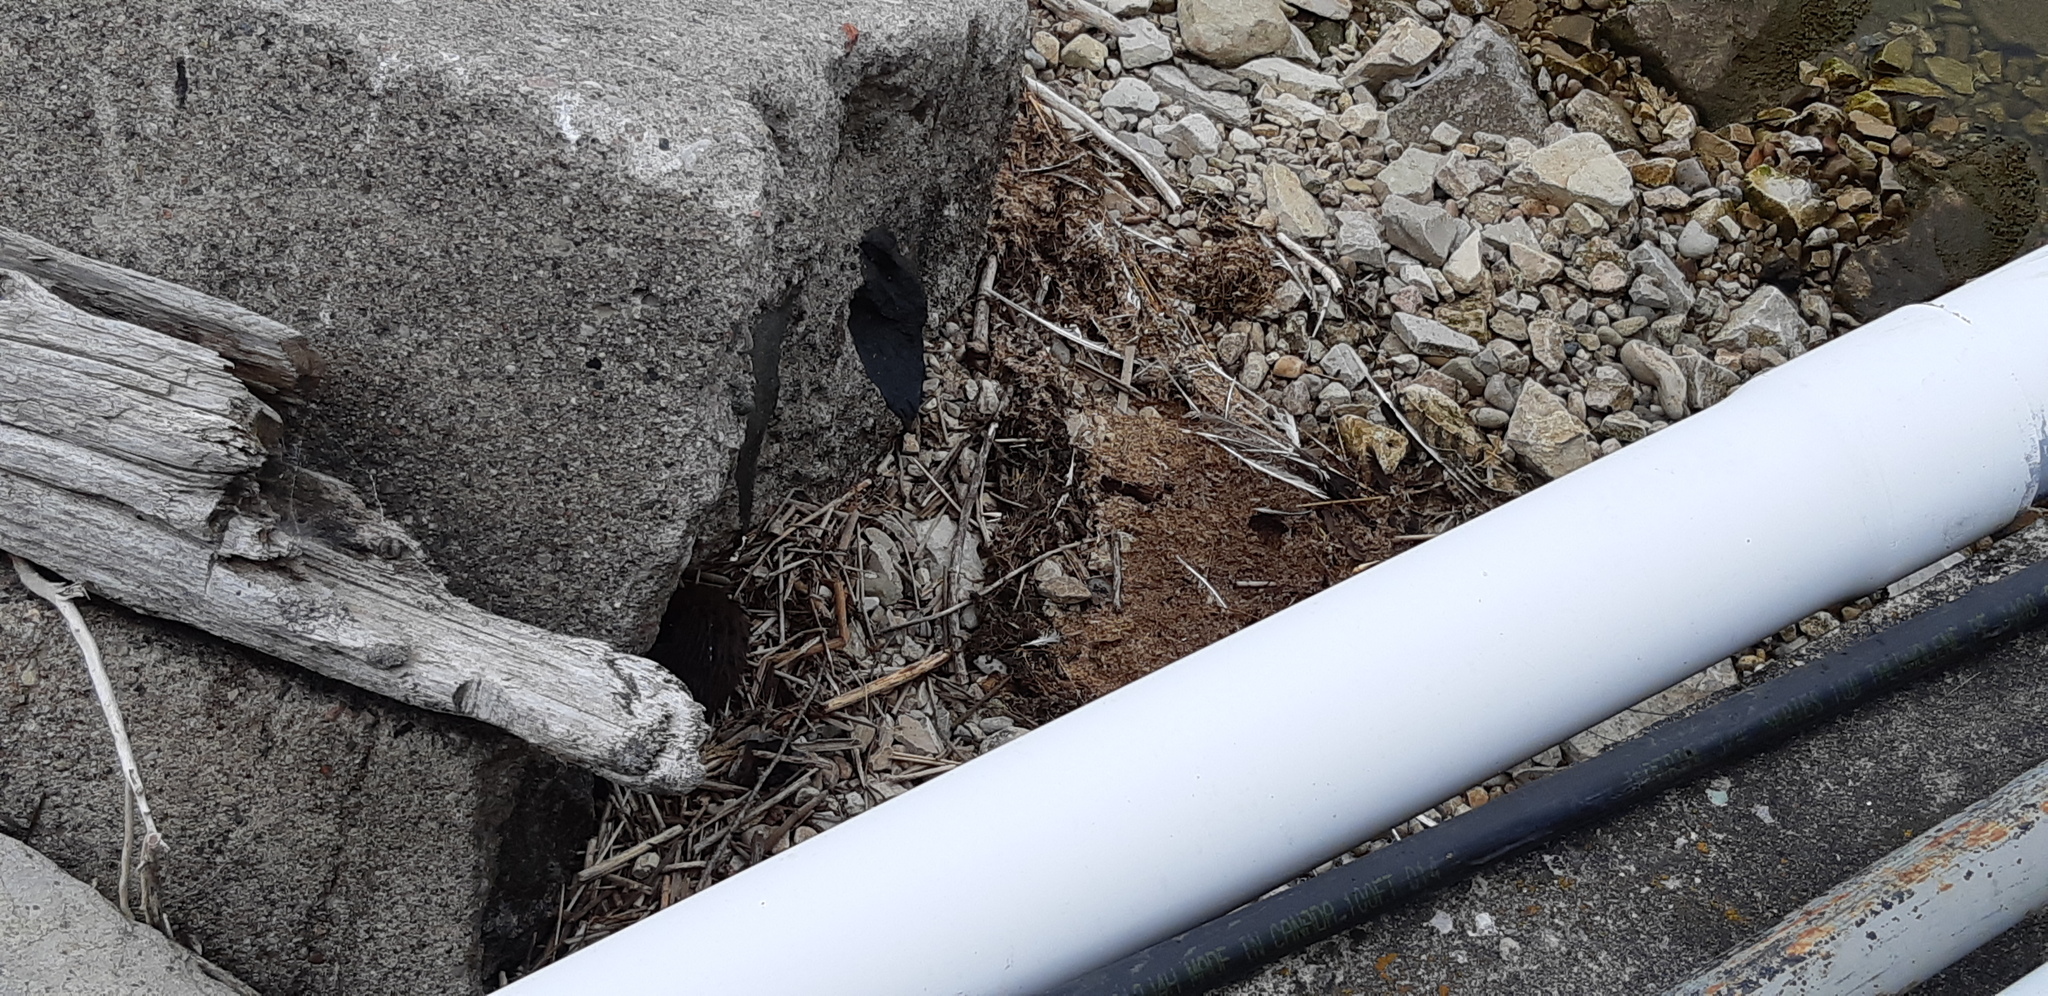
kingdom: Animalia
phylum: Chordata
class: Mammalia
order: Carnivora
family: Mustelidae
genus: Mustela
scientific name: Mustela
